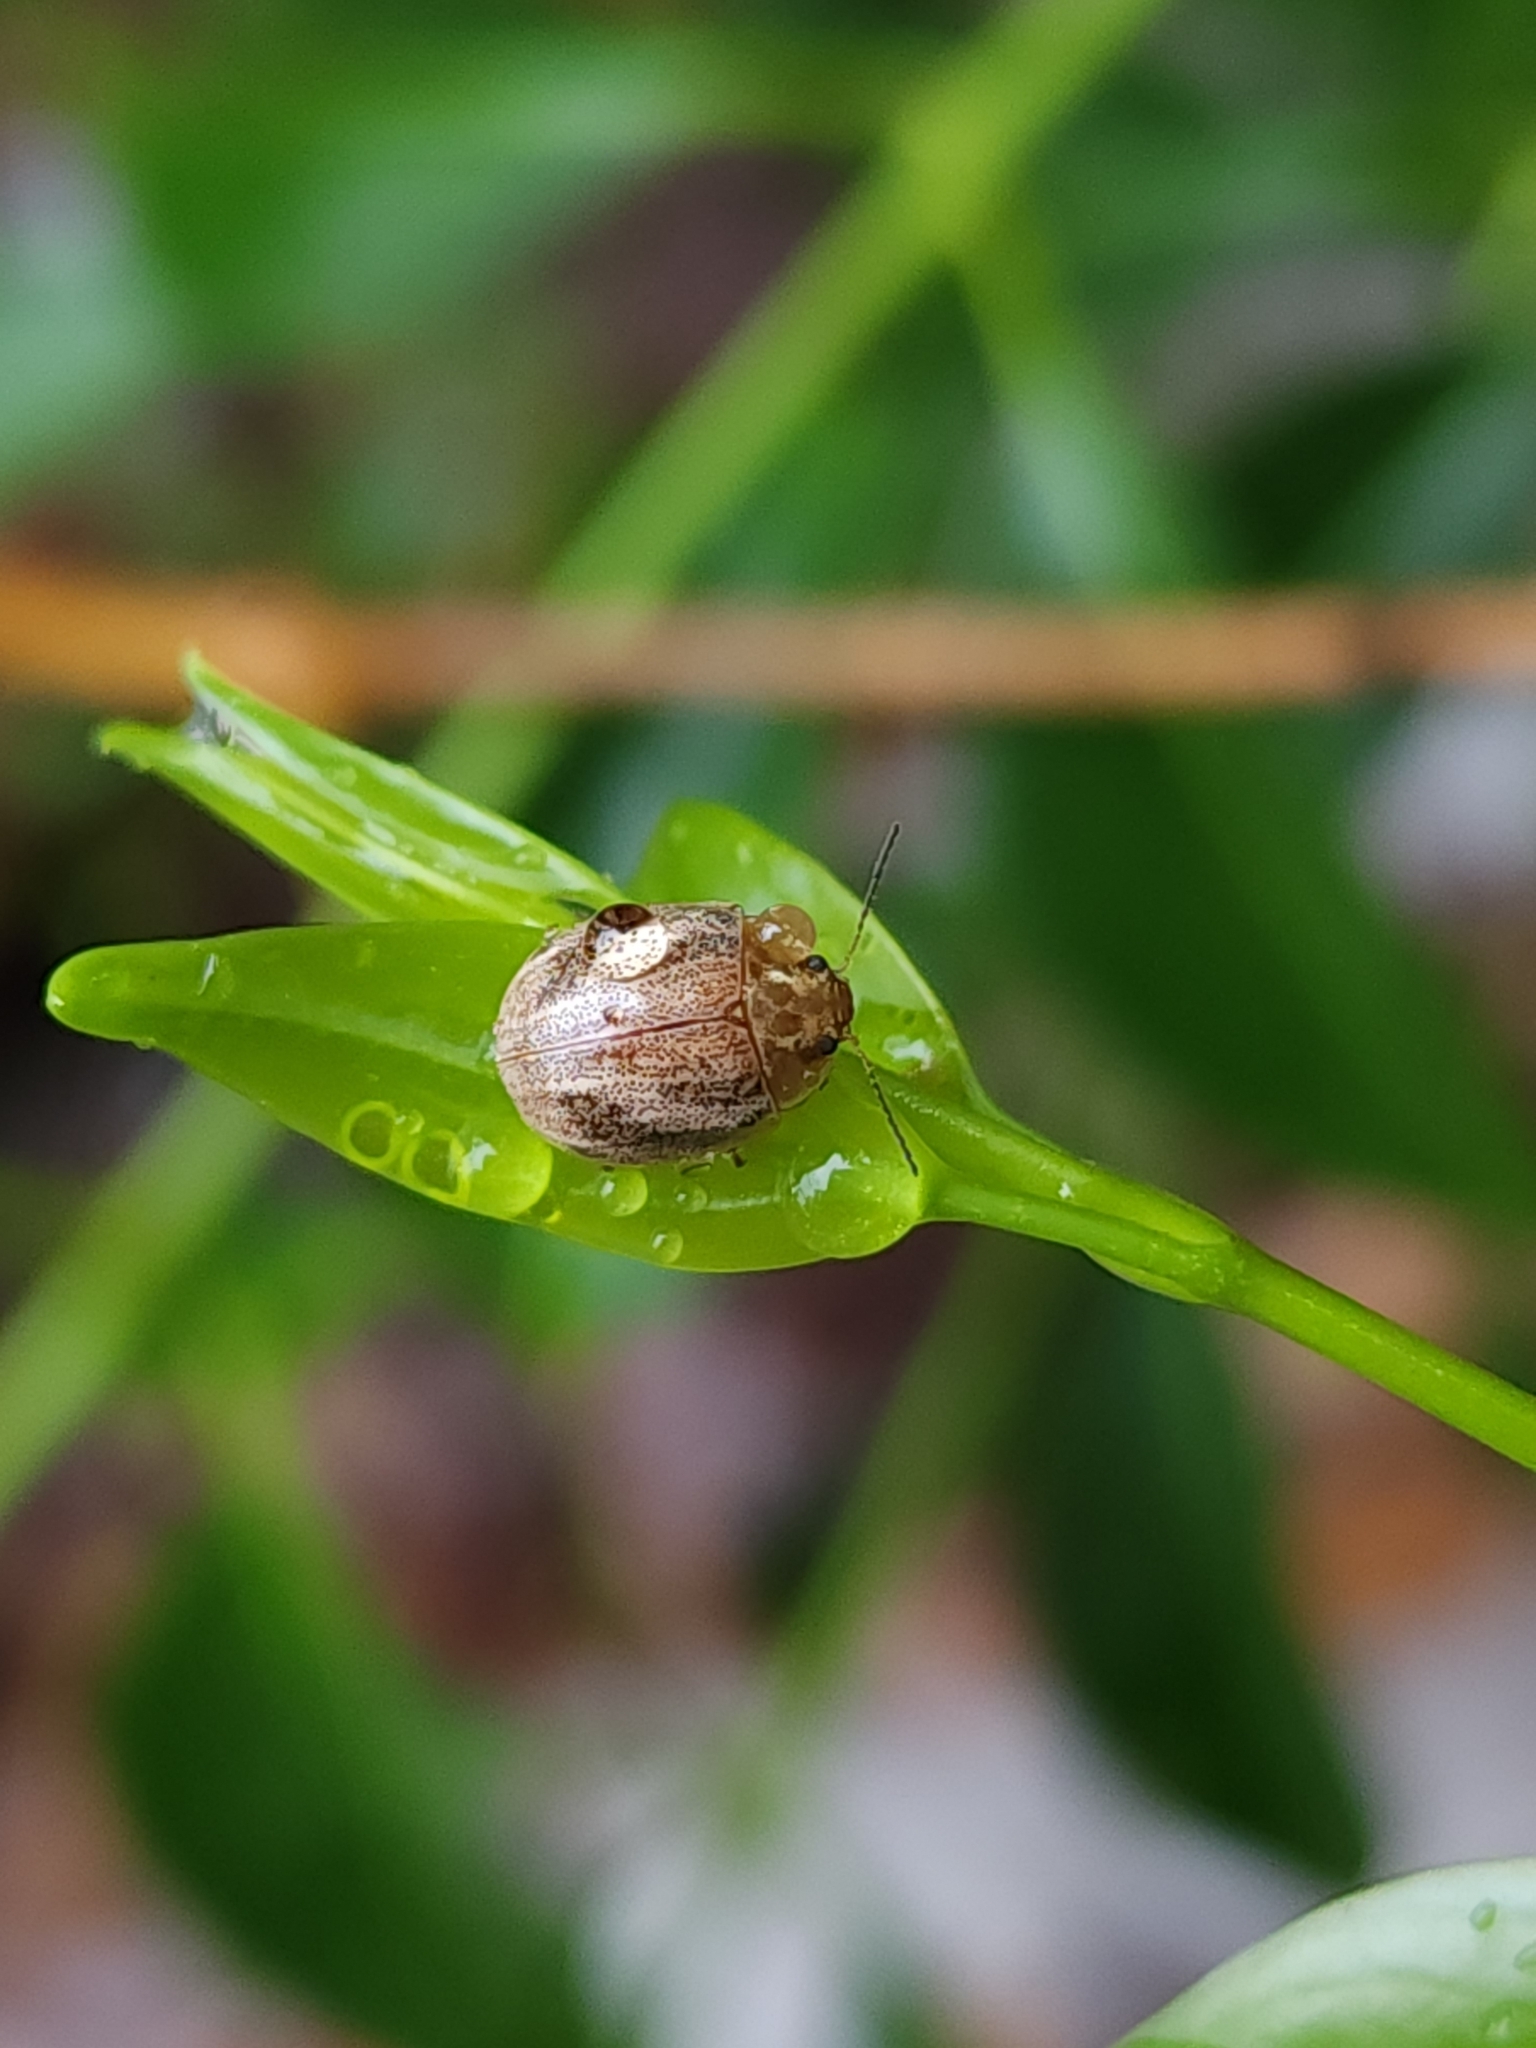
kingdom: Animalia
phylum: Arthropoda
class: Insecta
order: Coleoptera
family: Chrysomelidae
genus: Paropsisterna
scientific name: Paropsisterna
